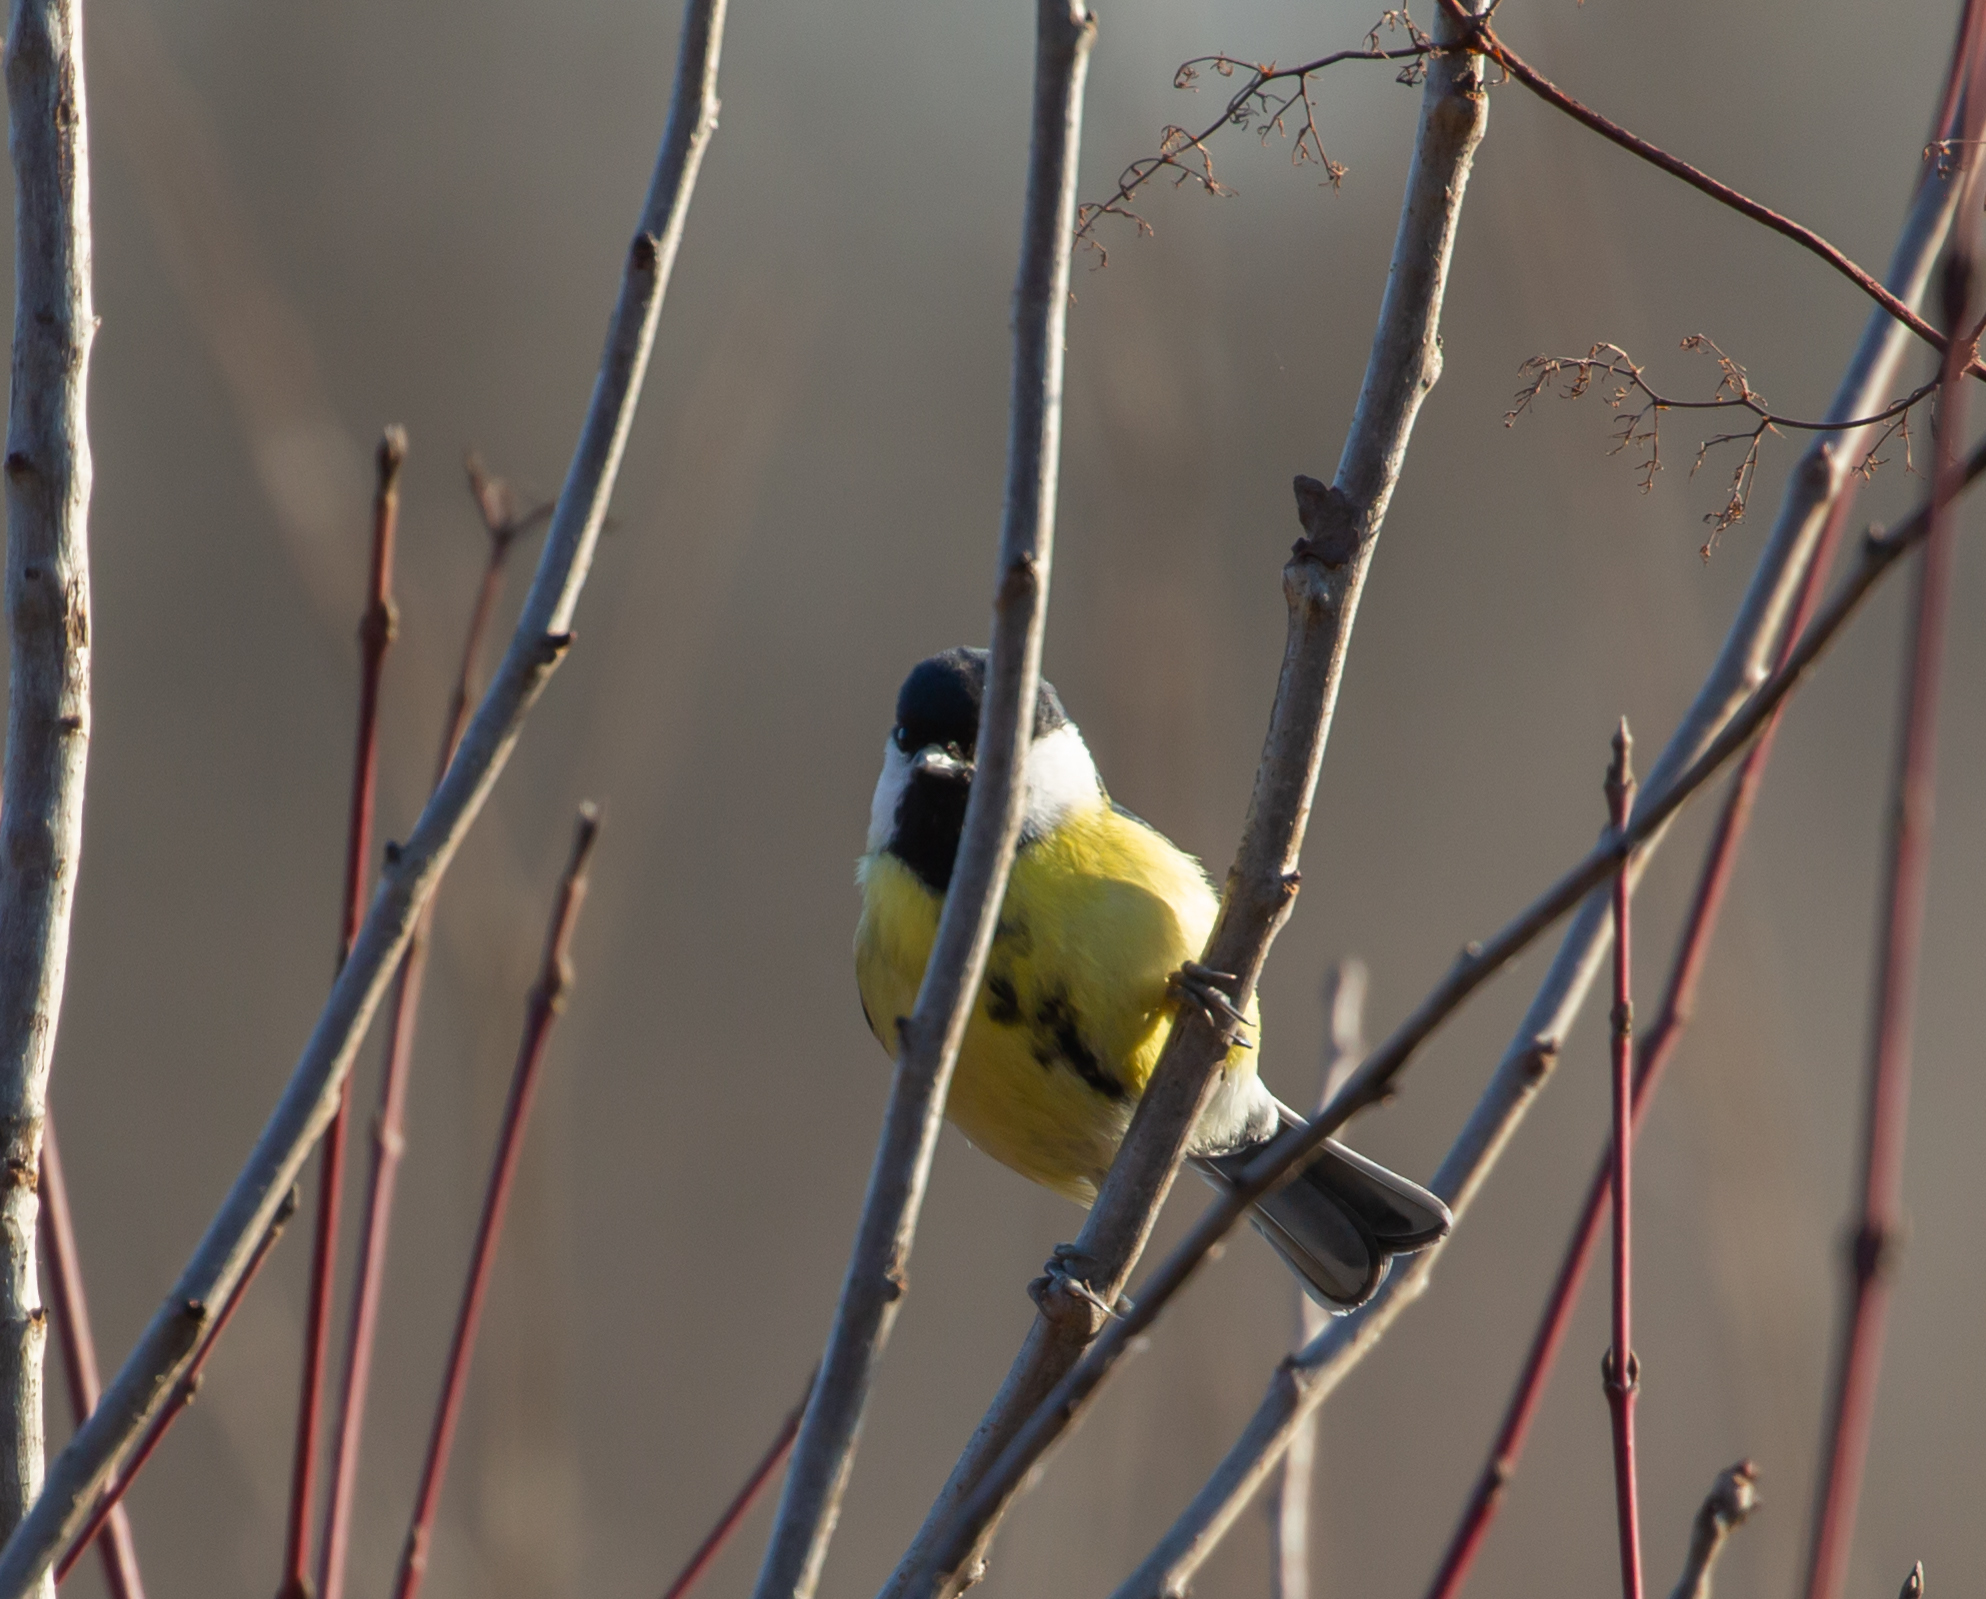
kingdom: Animalia
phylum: Chordata
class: Aves
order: Passeriformes
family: Paridae
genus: Parus
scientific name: Parus major
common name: Great tit
